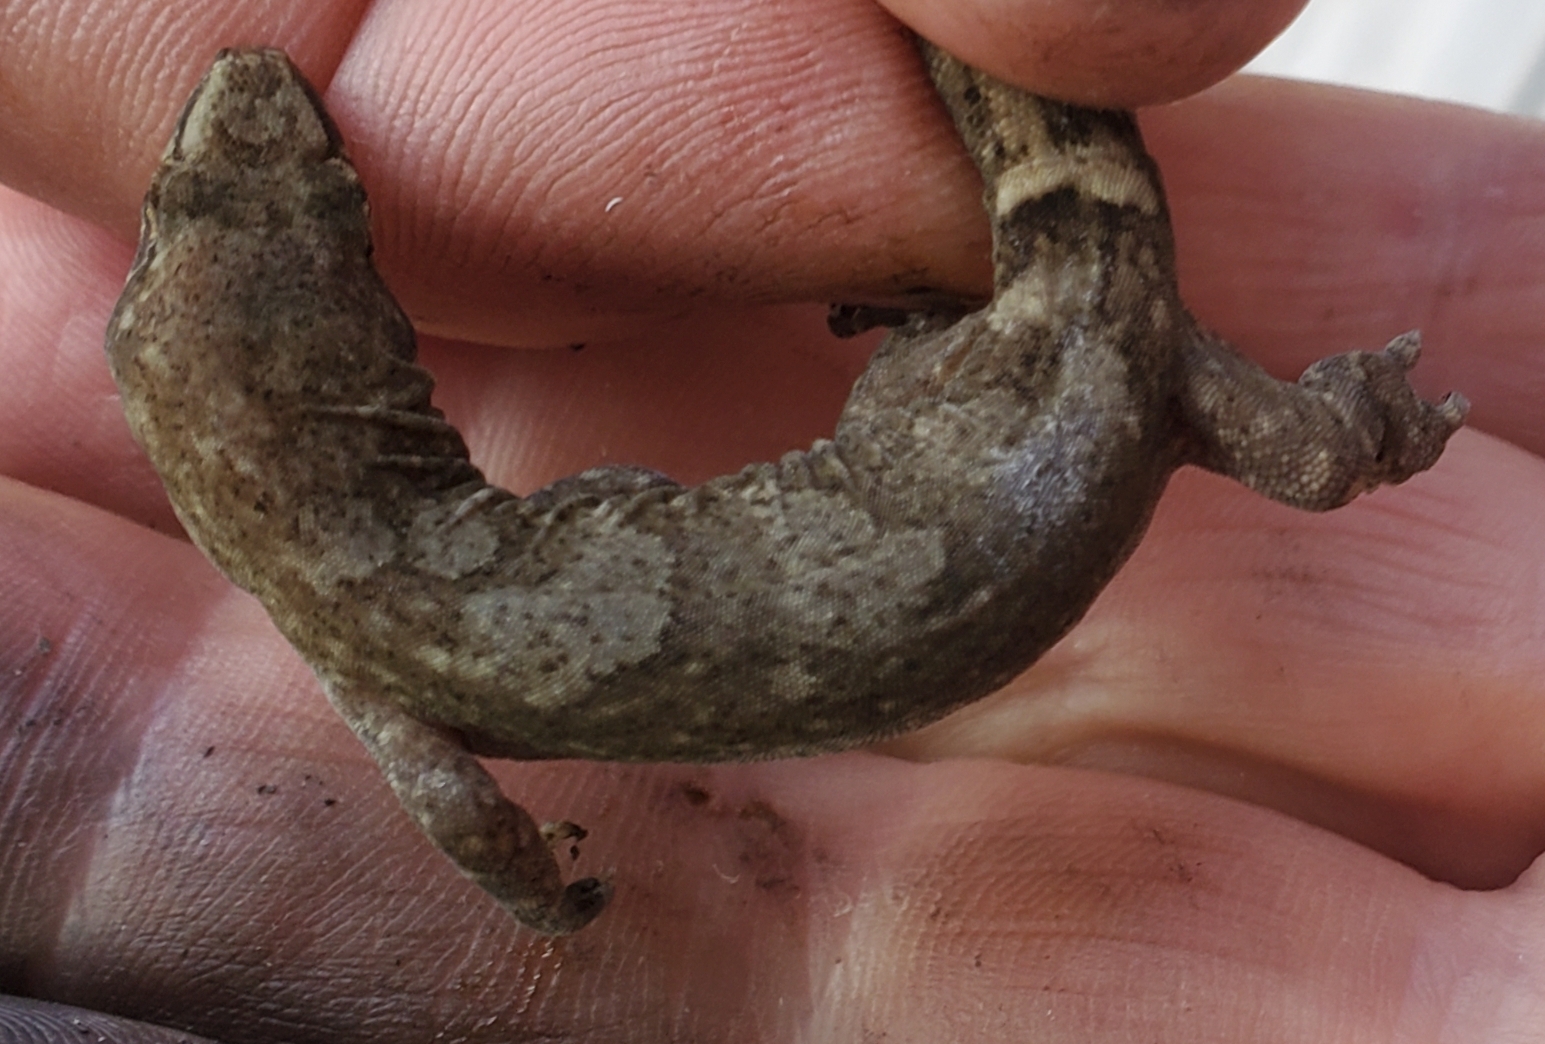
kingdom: Animalia
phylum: Chordata
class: Squamata
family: Diplodactylidae
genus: Woodworthia
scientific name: Woodworthia
